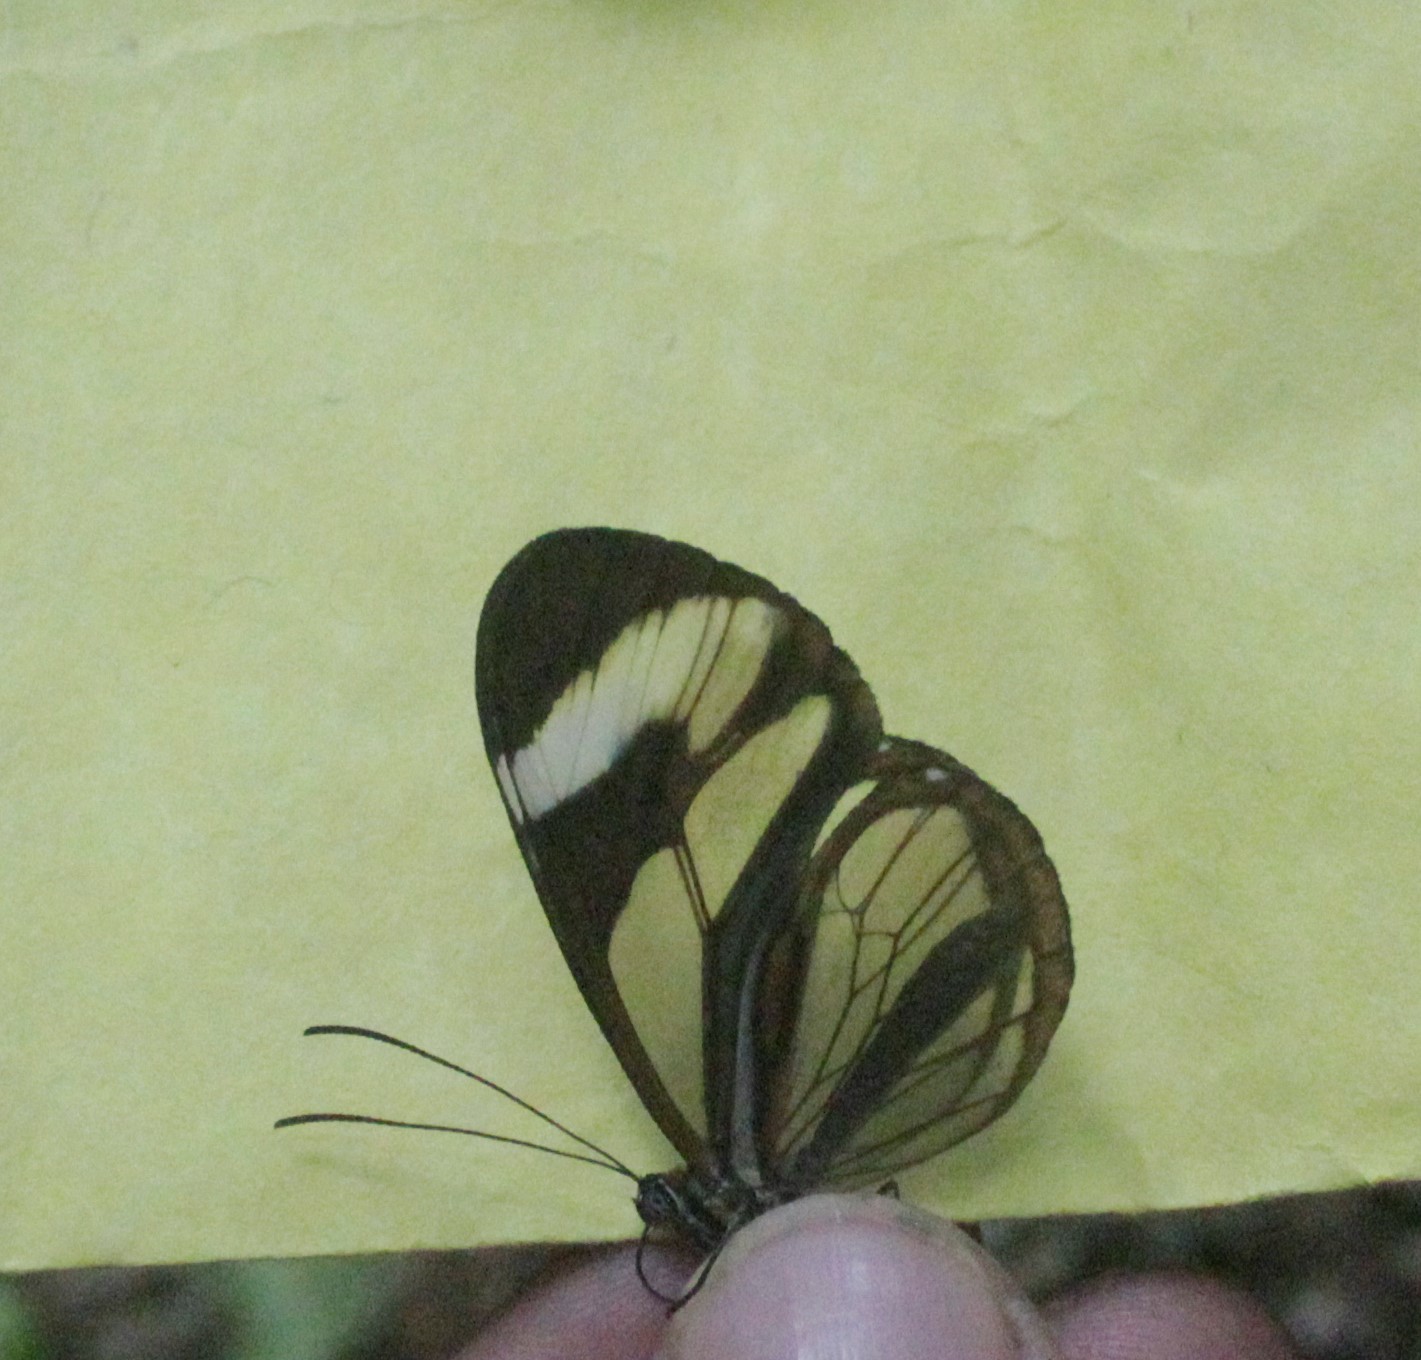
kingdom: Animalia
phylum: Arthropoda
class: Insecta
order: Lepidoptera
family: Nymphalidae
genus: Ithomia
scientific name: Ithomia patilla
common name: Patilla clearwing
